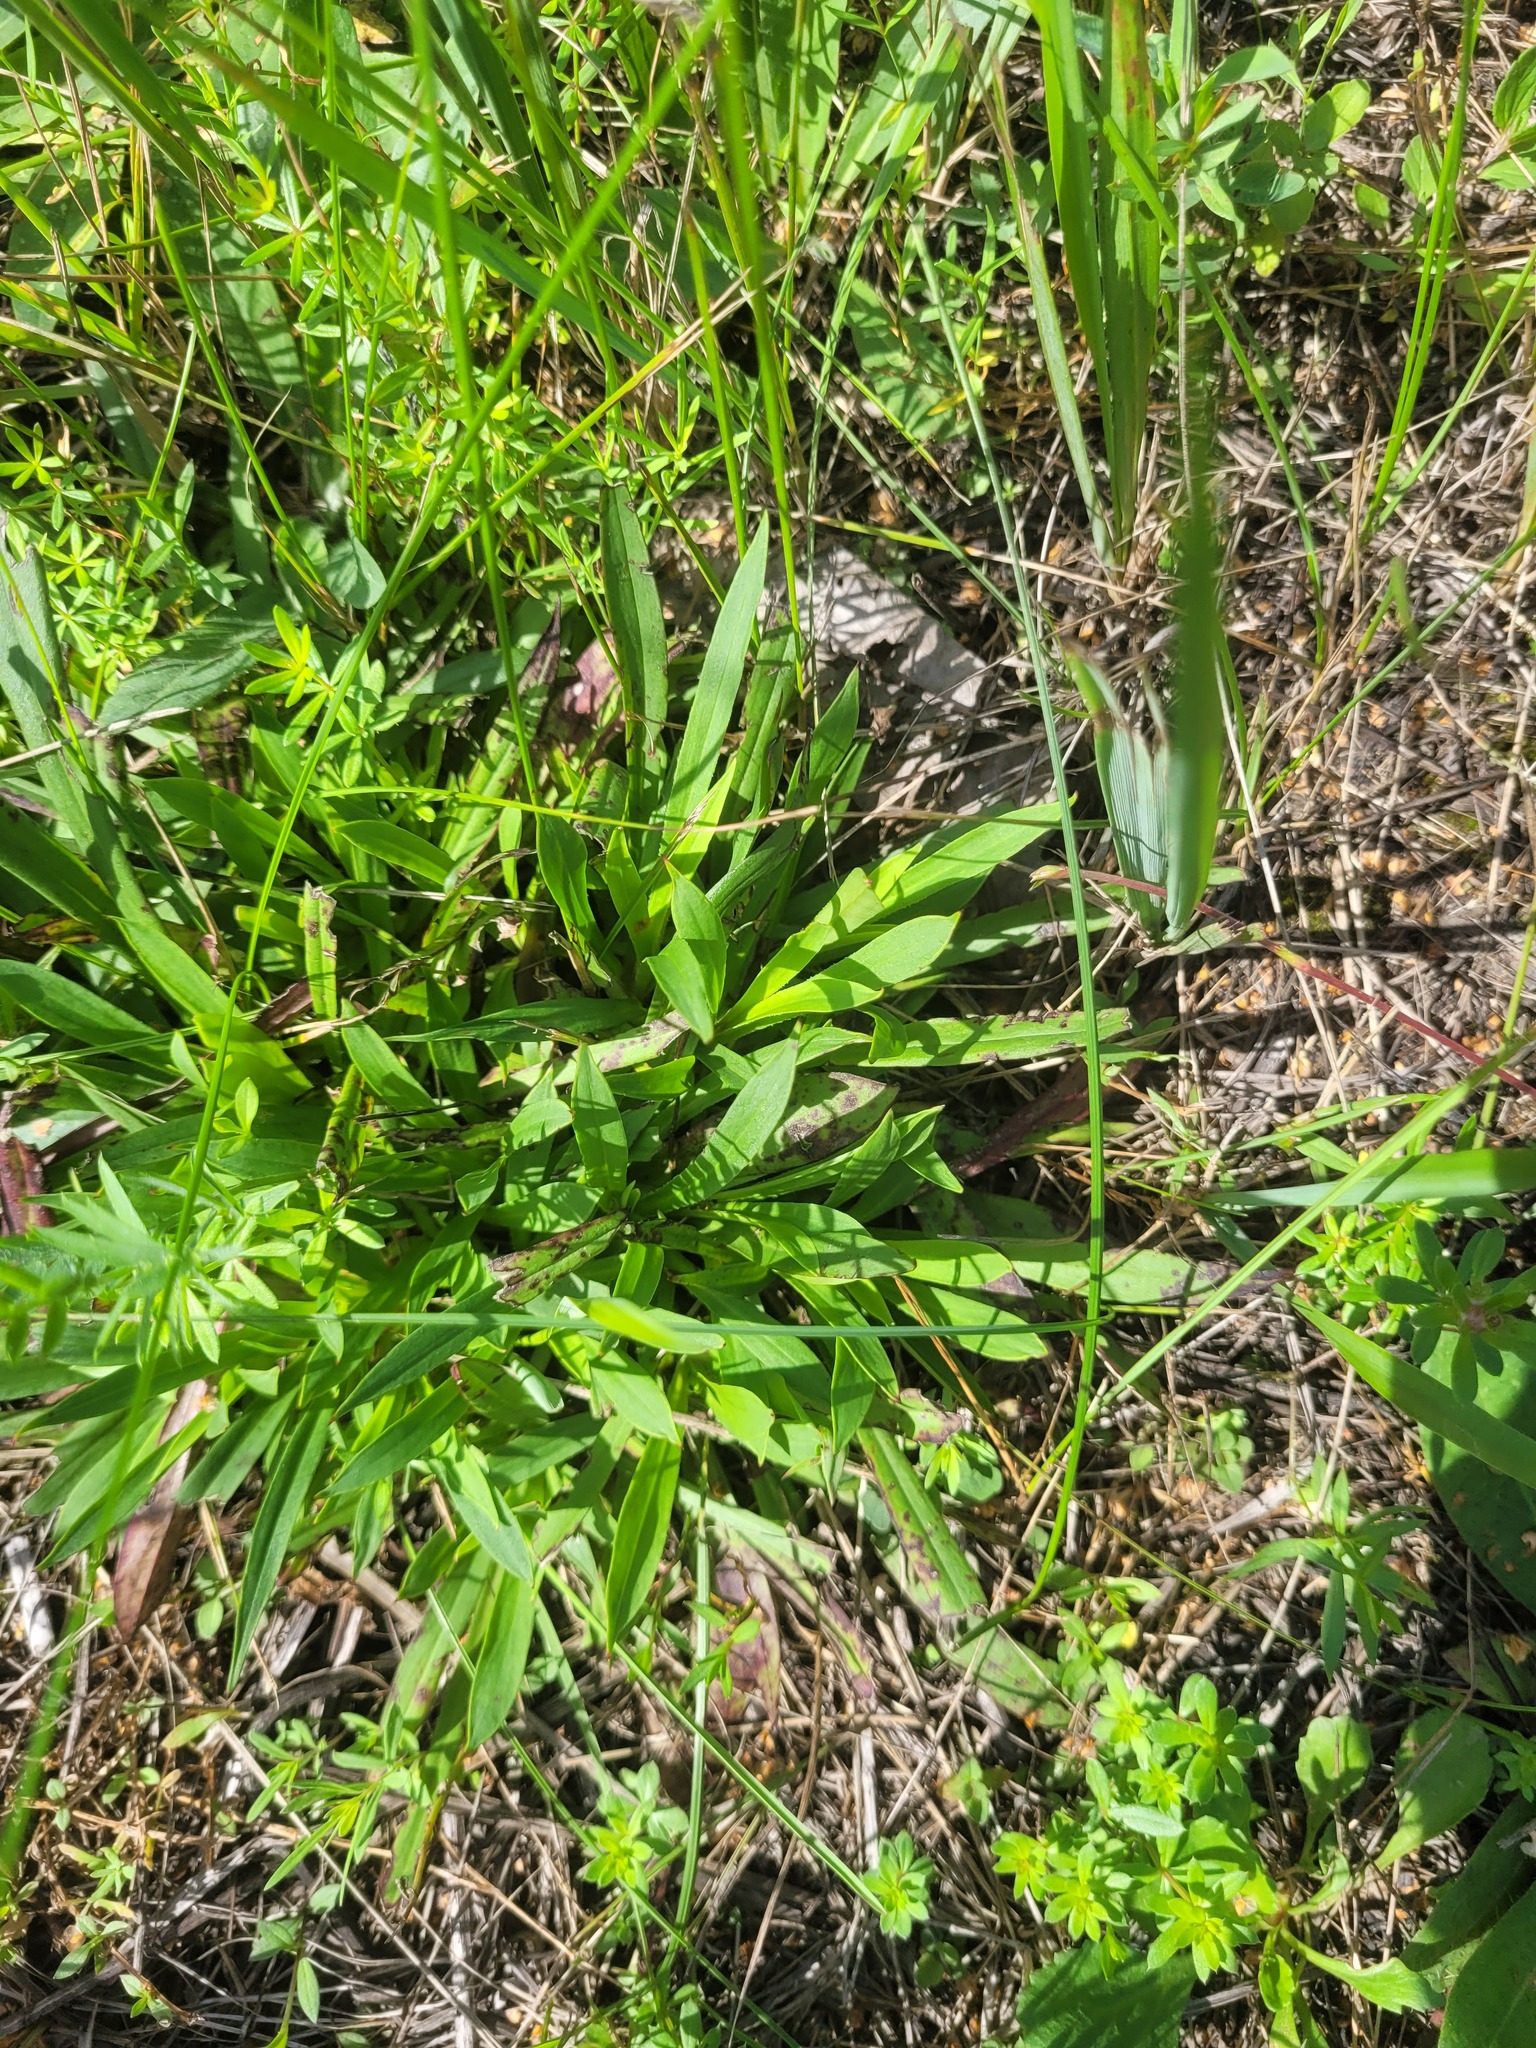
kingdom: Plantae
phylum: Tracheophyta
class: Magnoliopsida
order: Caryophyllales
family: Caryophyllaceae
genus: Viscaria
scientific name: Viscaria vulgaris
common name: Clammy campion
